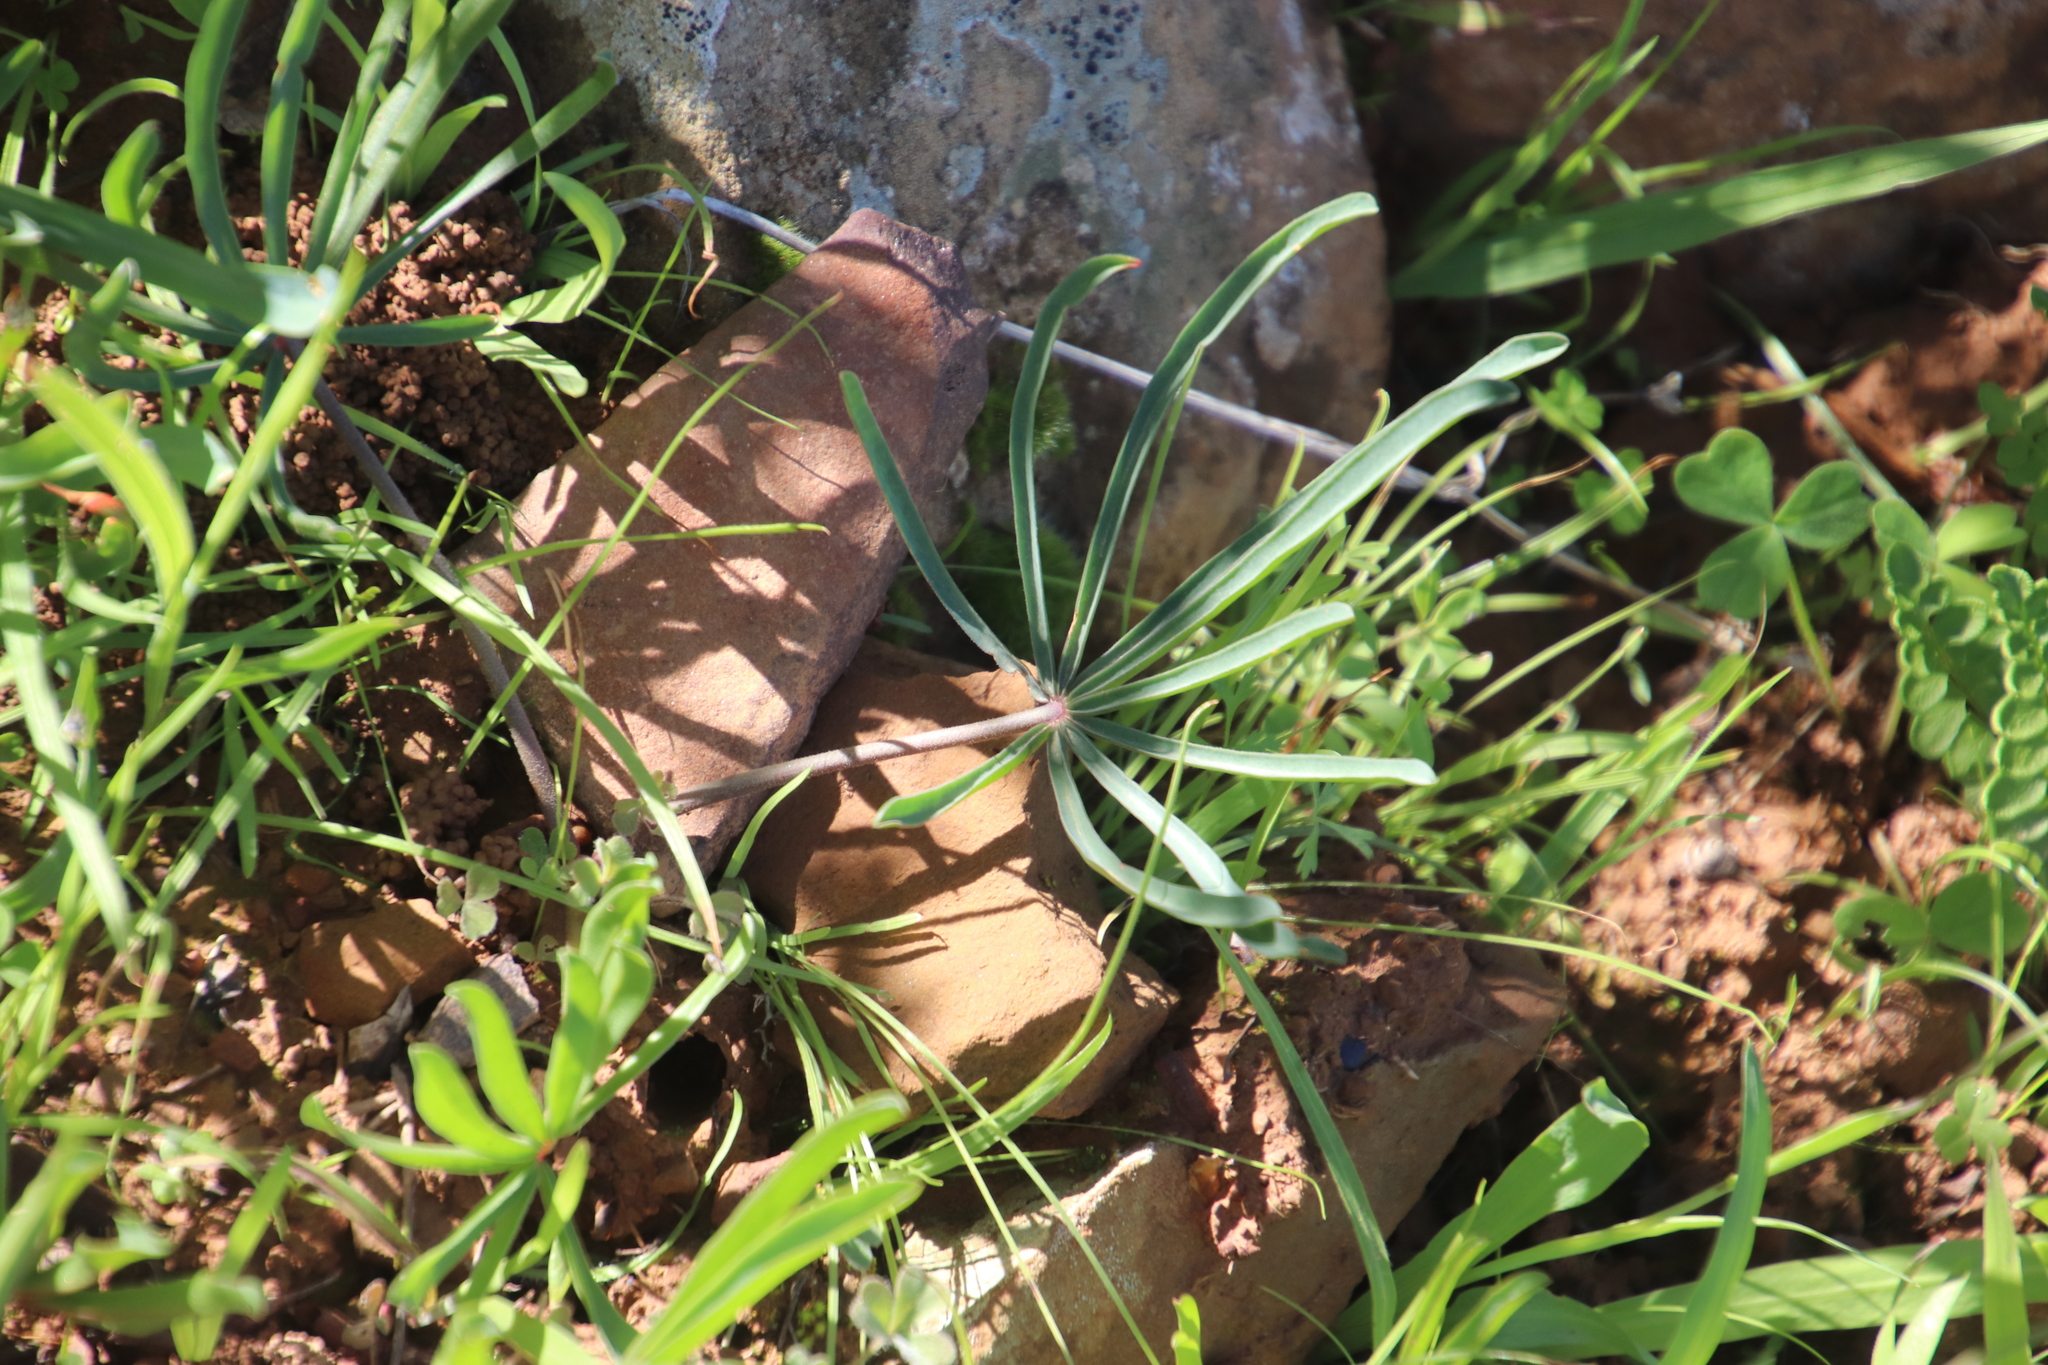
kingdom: Plantae
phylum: Tracheophyta
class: Magnoliopsida
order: Oxalidales
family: Oxalidaceae
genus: Oxalis
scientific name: Oxalis flava
